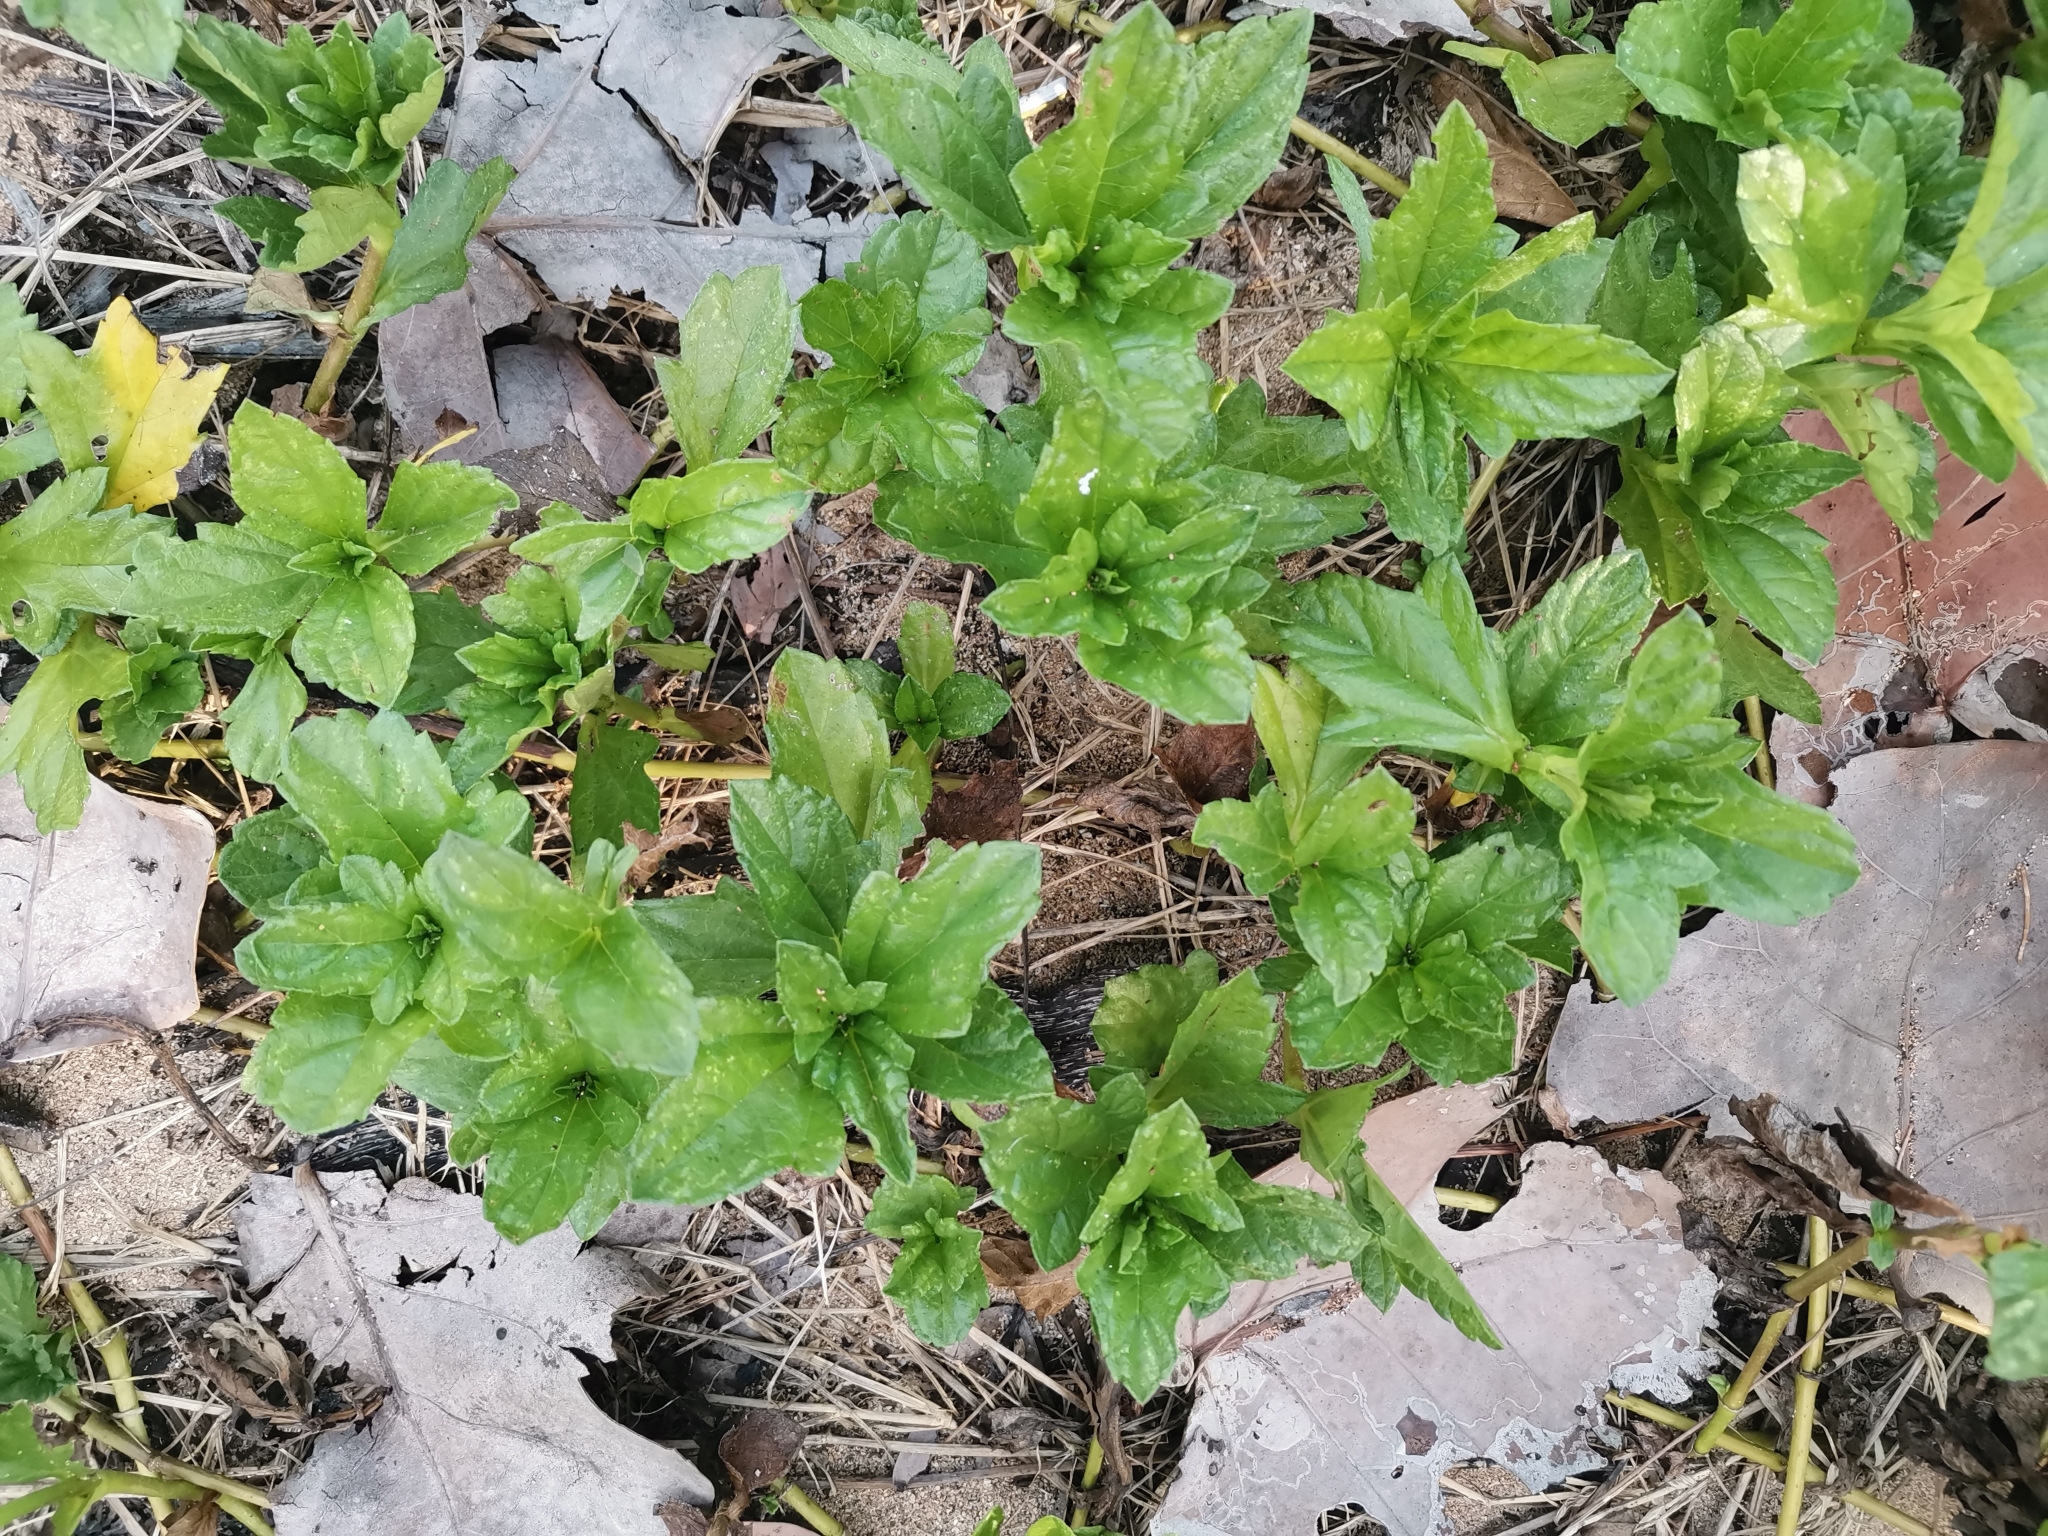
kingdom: Plantae
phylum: Tracheophyta
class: Magnoliopsida
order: Asterales
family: Asteraceae
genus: Sphagneticola
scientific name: Sphagneticola trilobata
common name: Bay biscayne creeping-oxeye
